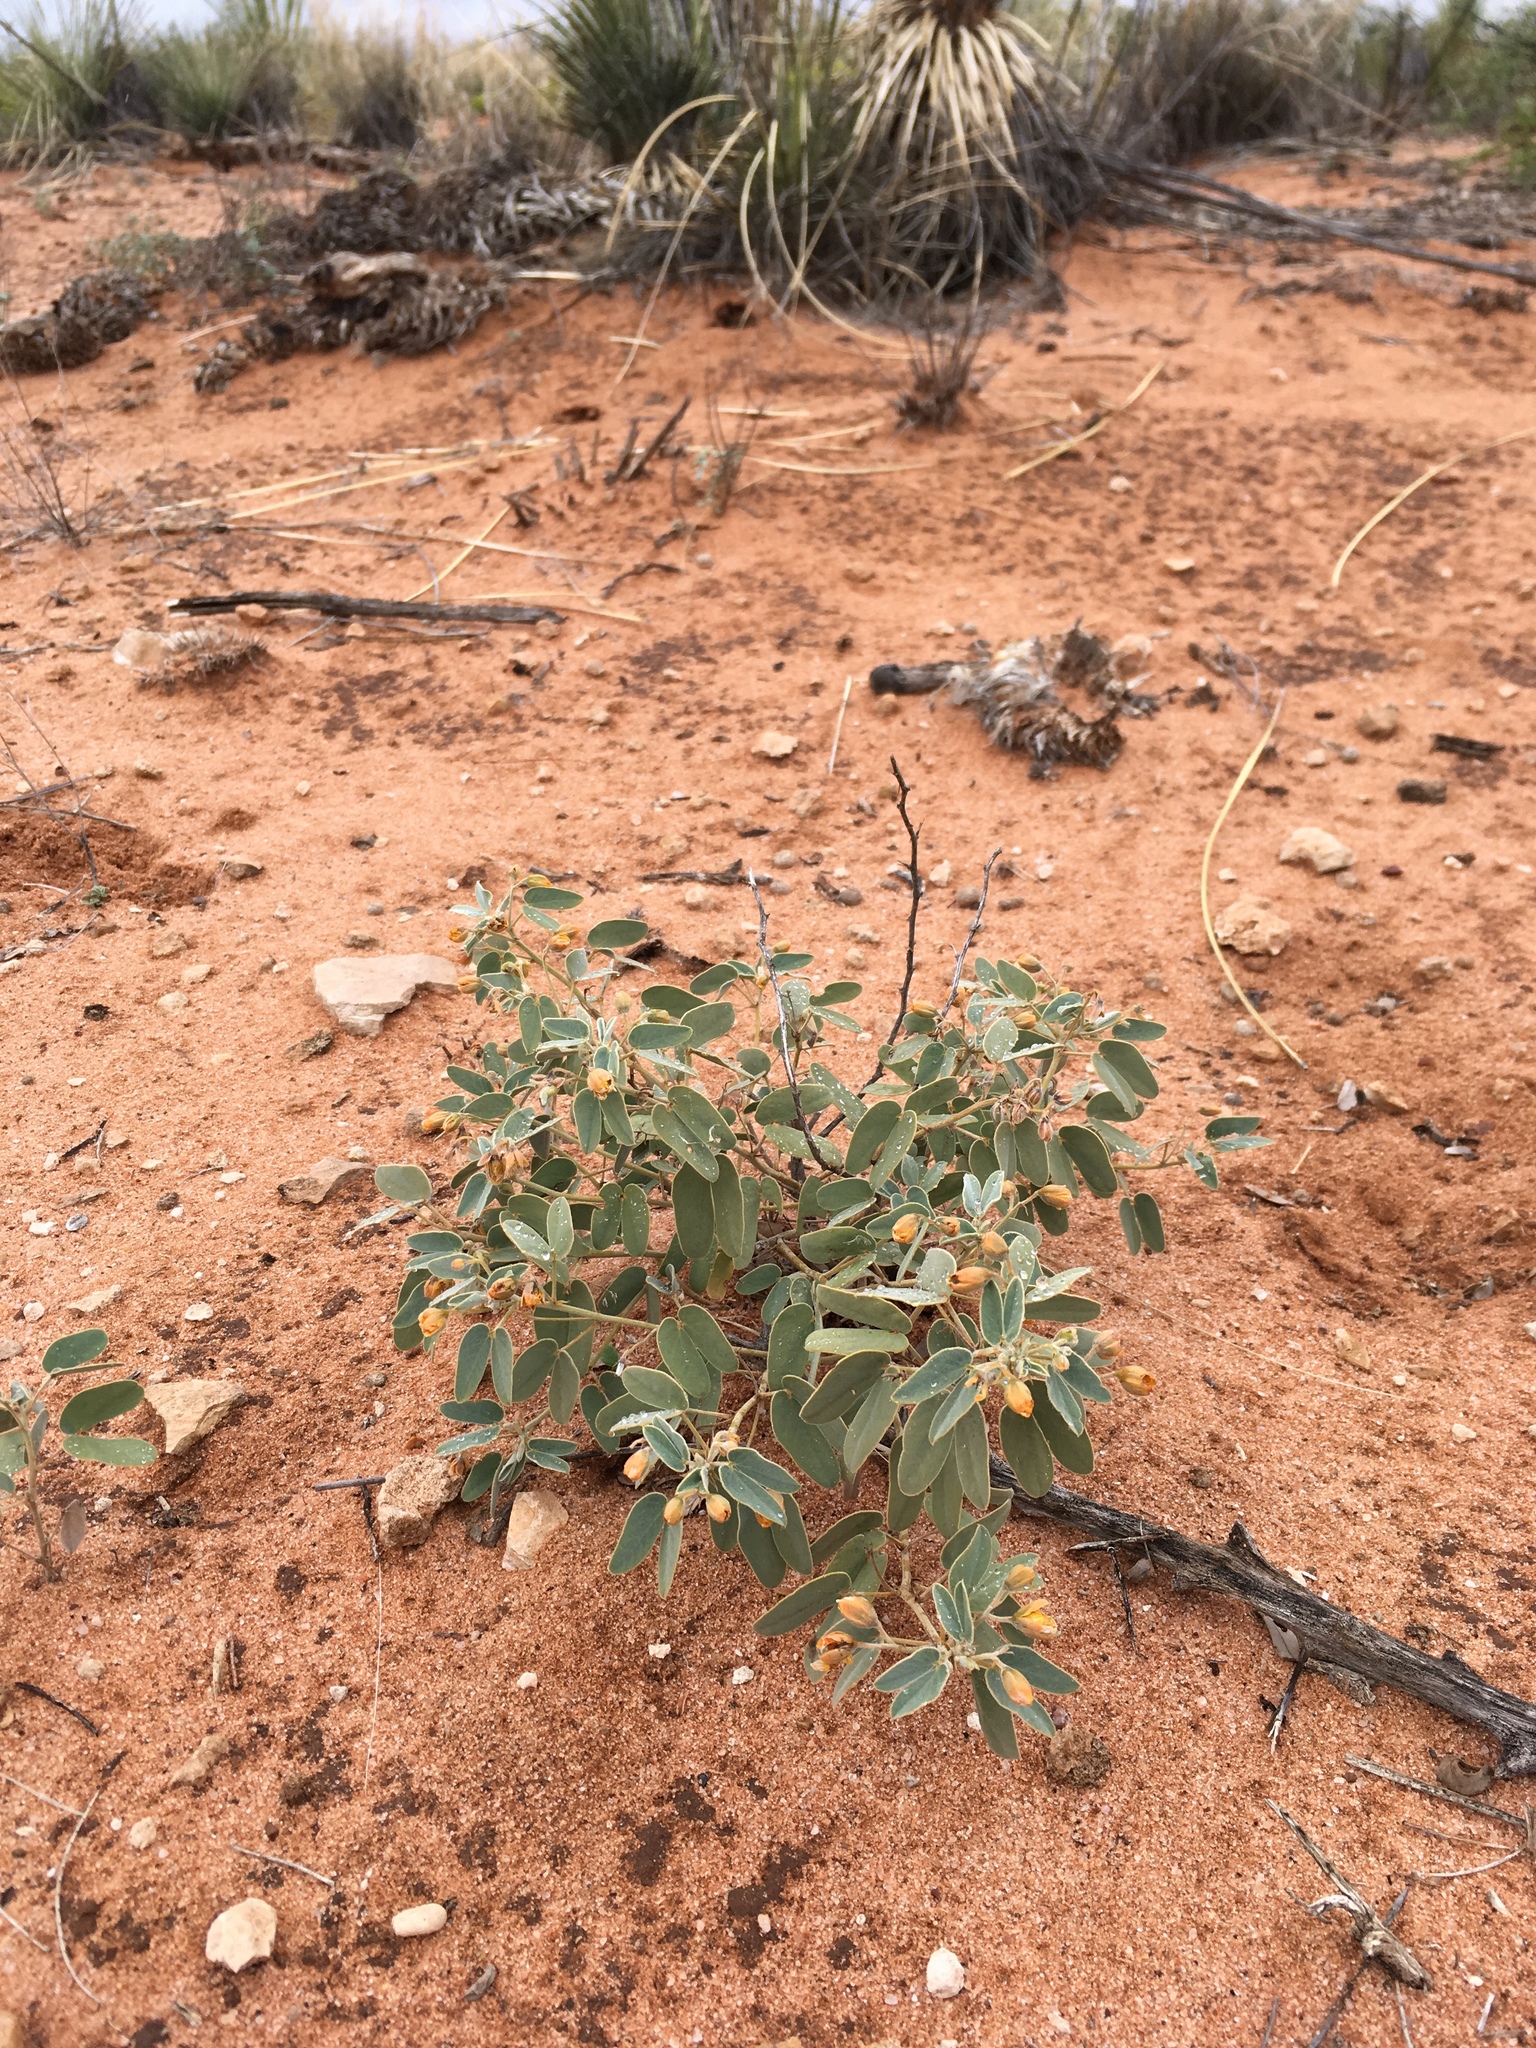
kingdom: Plantae
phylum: Tracheophyta
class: Magnoliopsida
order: Fabales
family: Fabaceae
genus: Senna
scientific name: Senna bauhinioides
